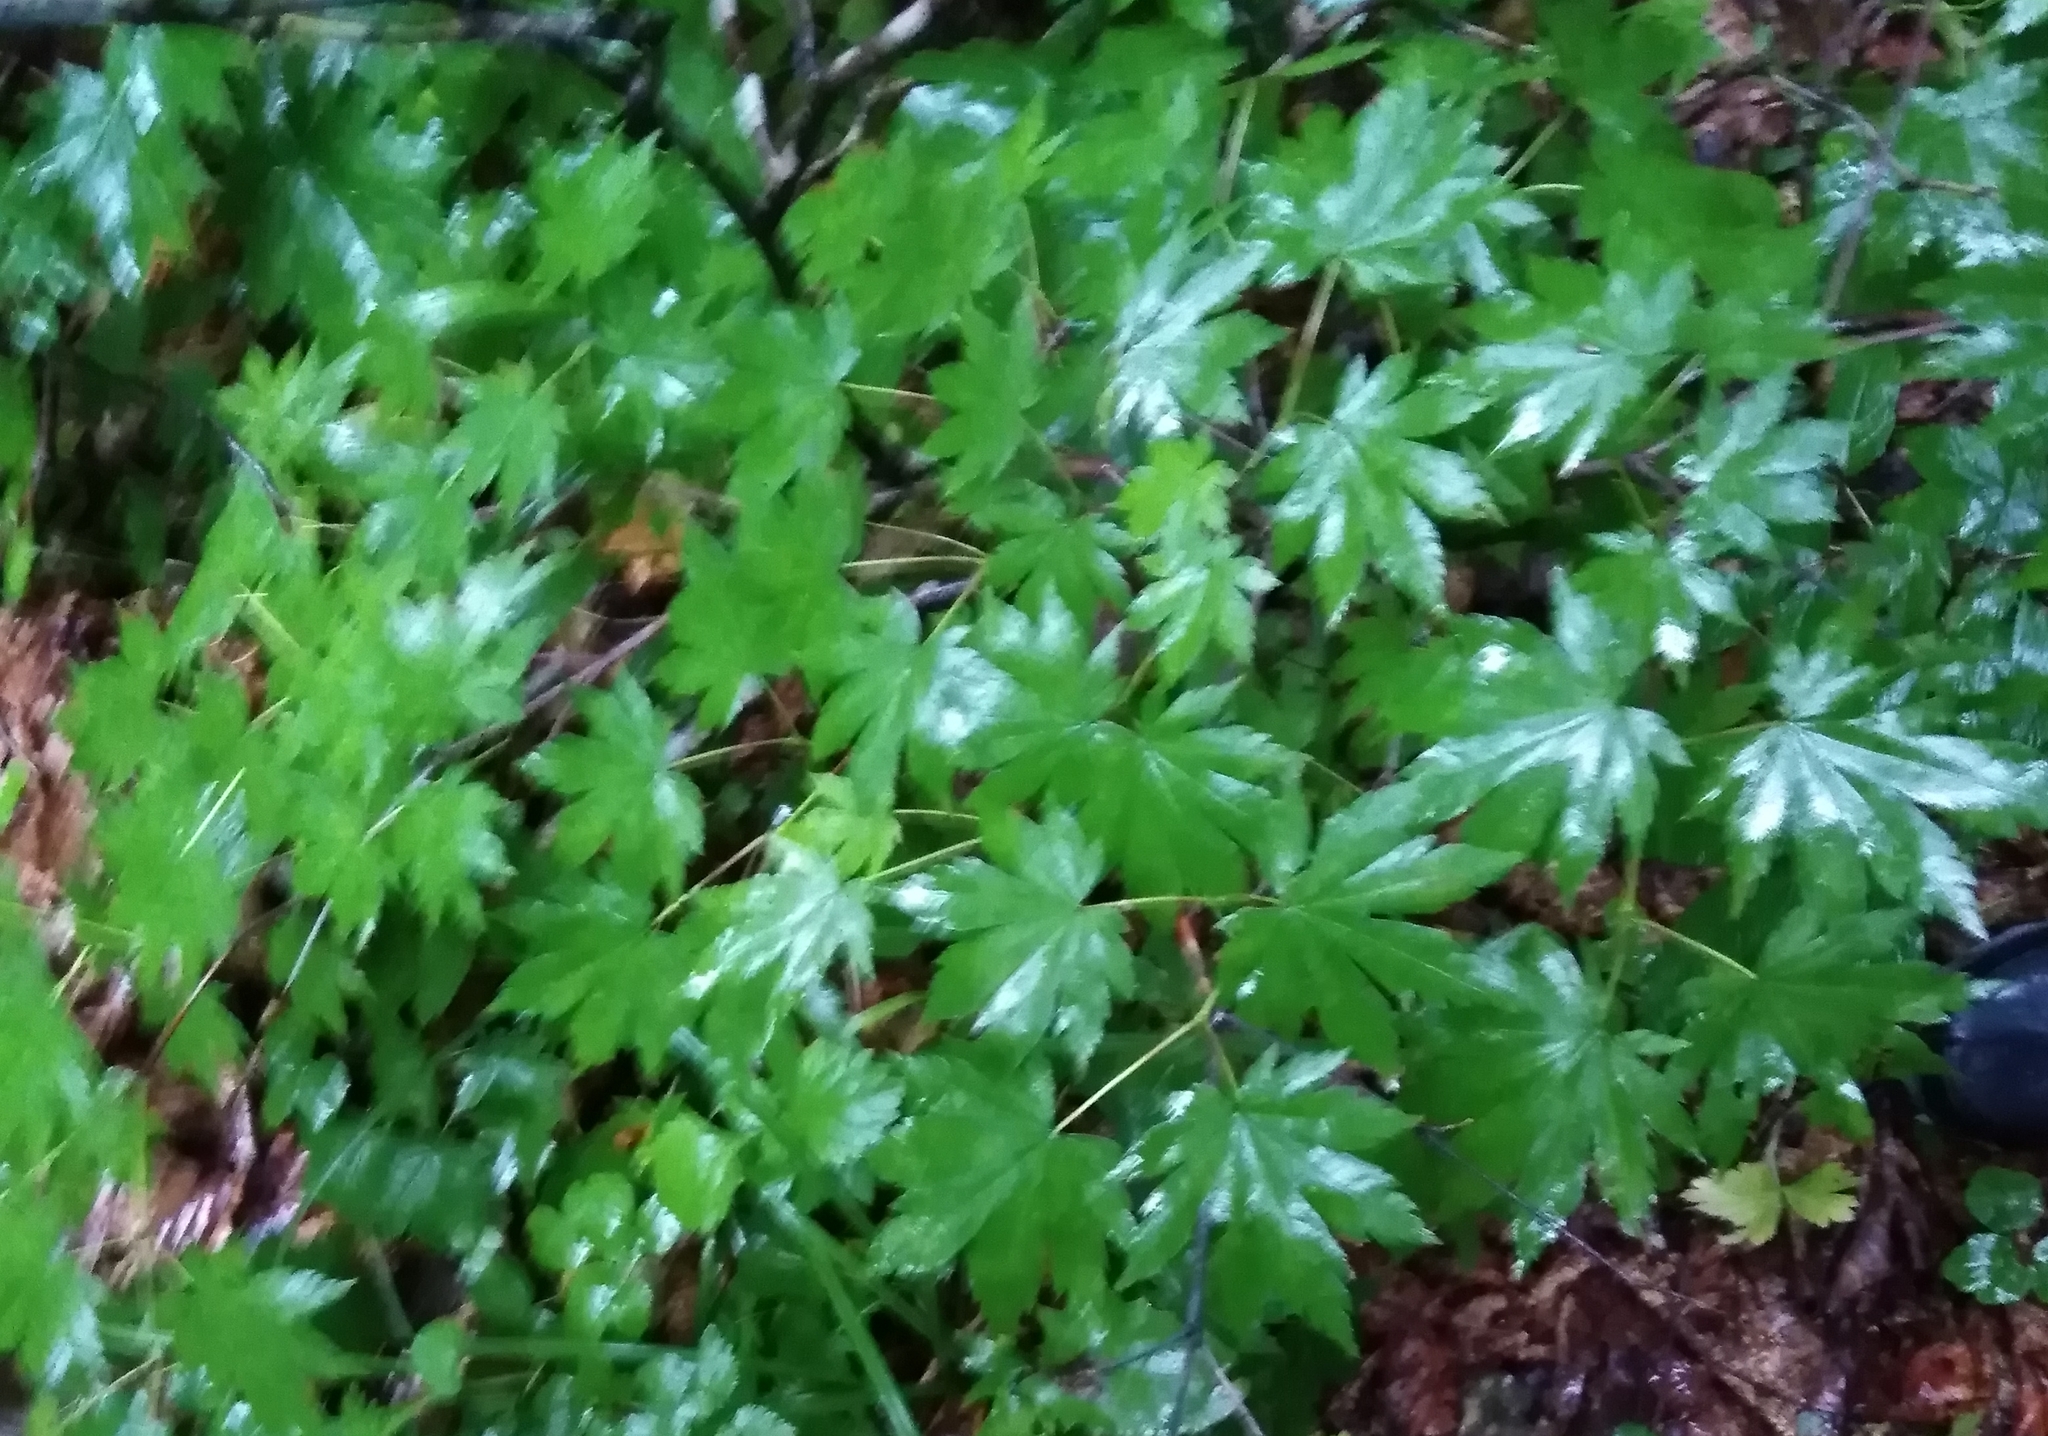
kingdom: Plantae
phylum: Tracheophyta
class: Magnoliopsida
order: Sapindales
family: Sapindaceae
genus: Acer
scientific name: Acer pseudosieboldianum
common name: Korean maple
